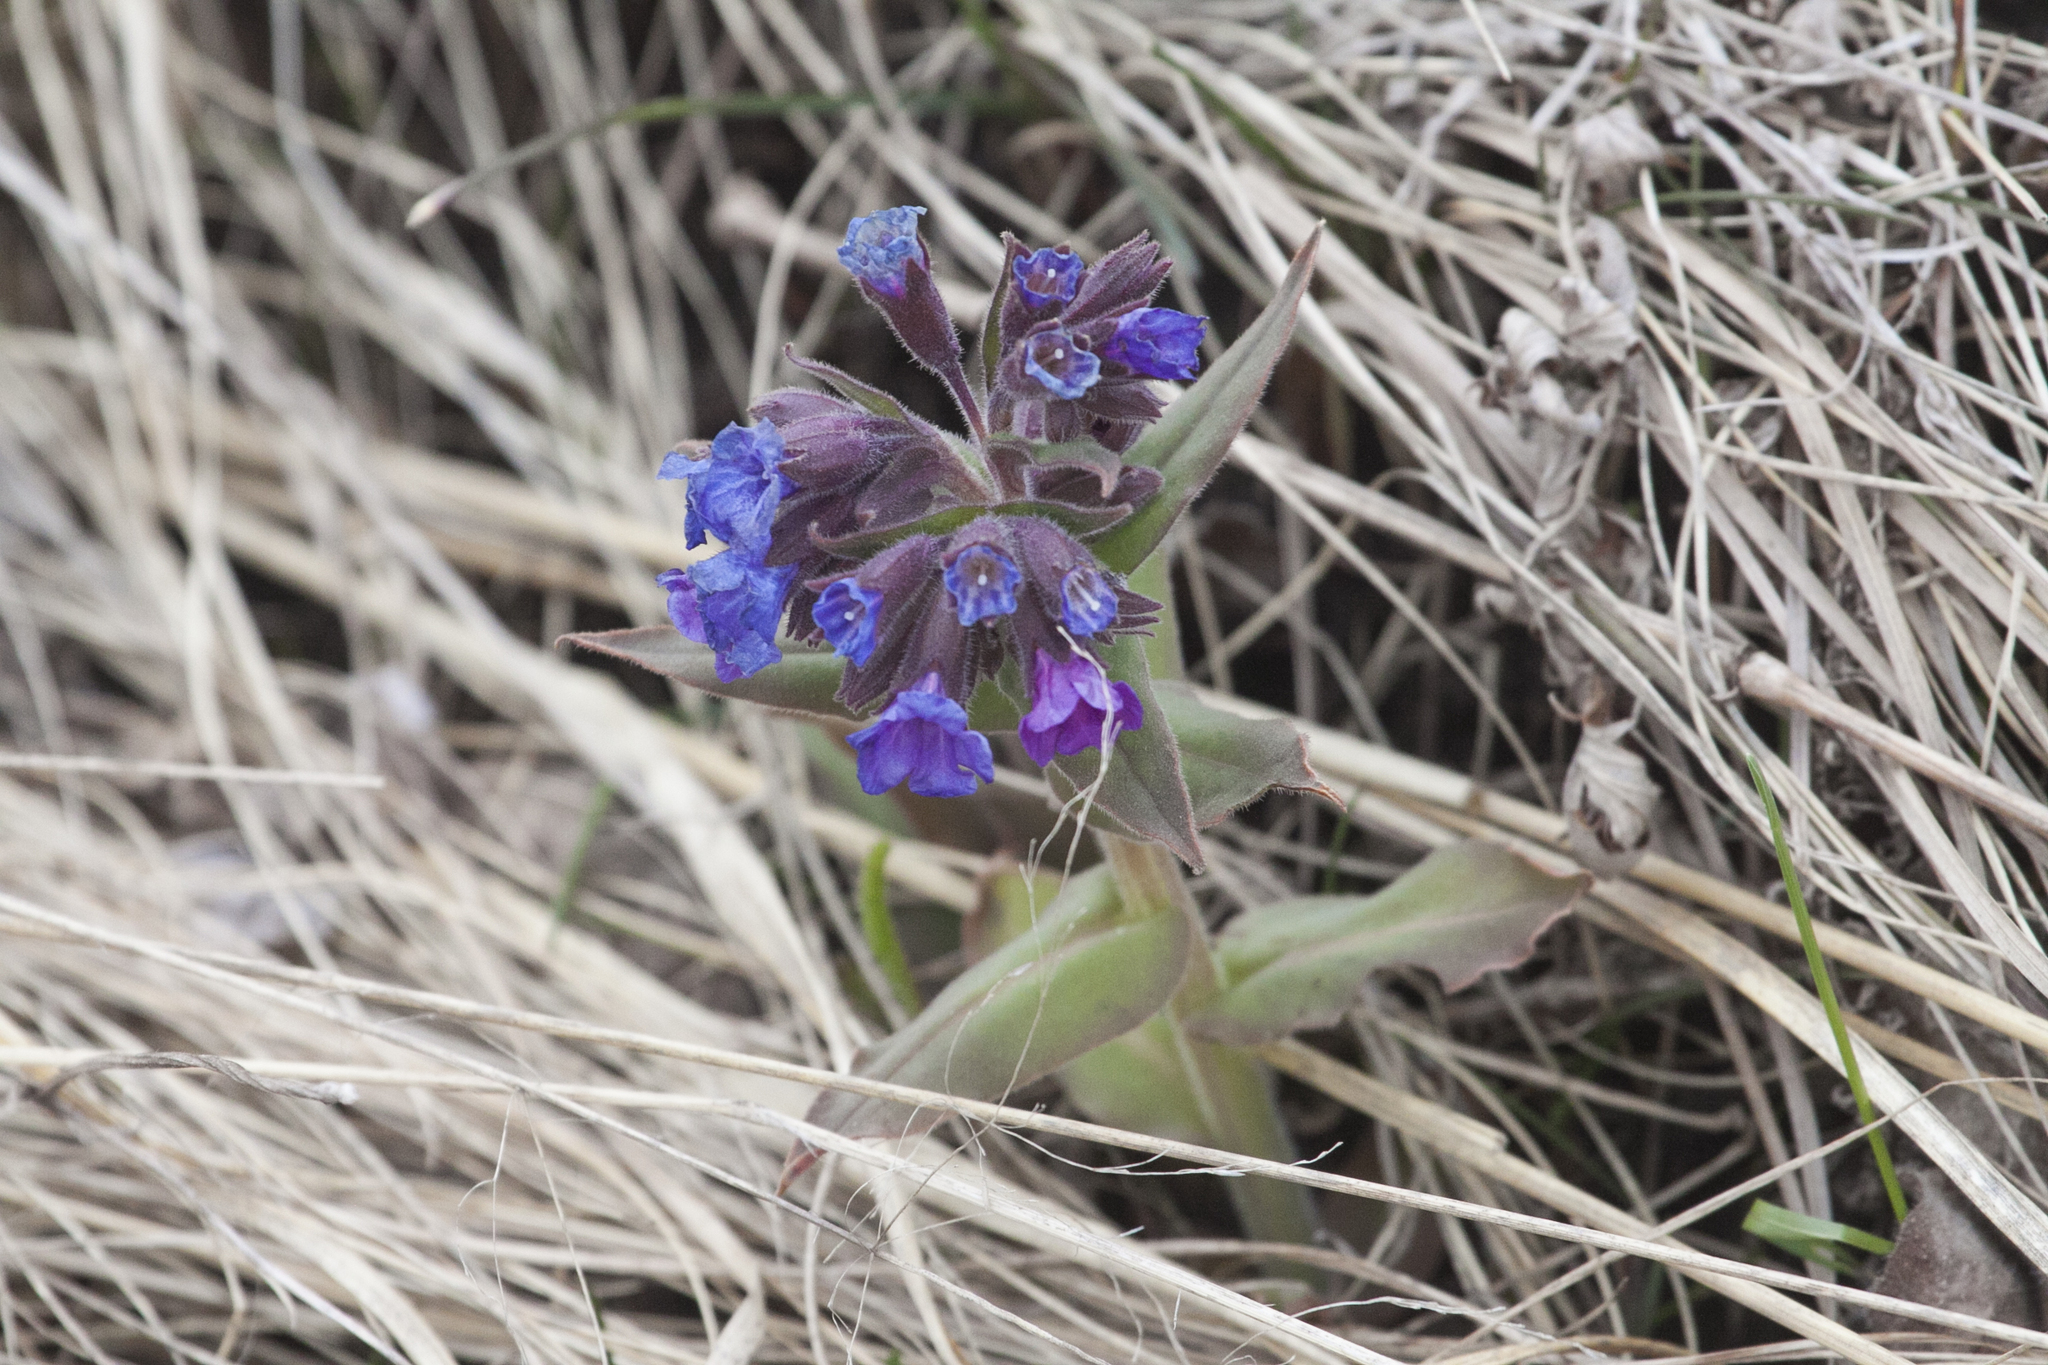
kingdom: Plantae
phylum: Tracheophyta
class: Magnoliopsida
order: Boraginales
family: Boraginaceae
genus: Pulmonaria
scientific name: Pulmonaria mollis
